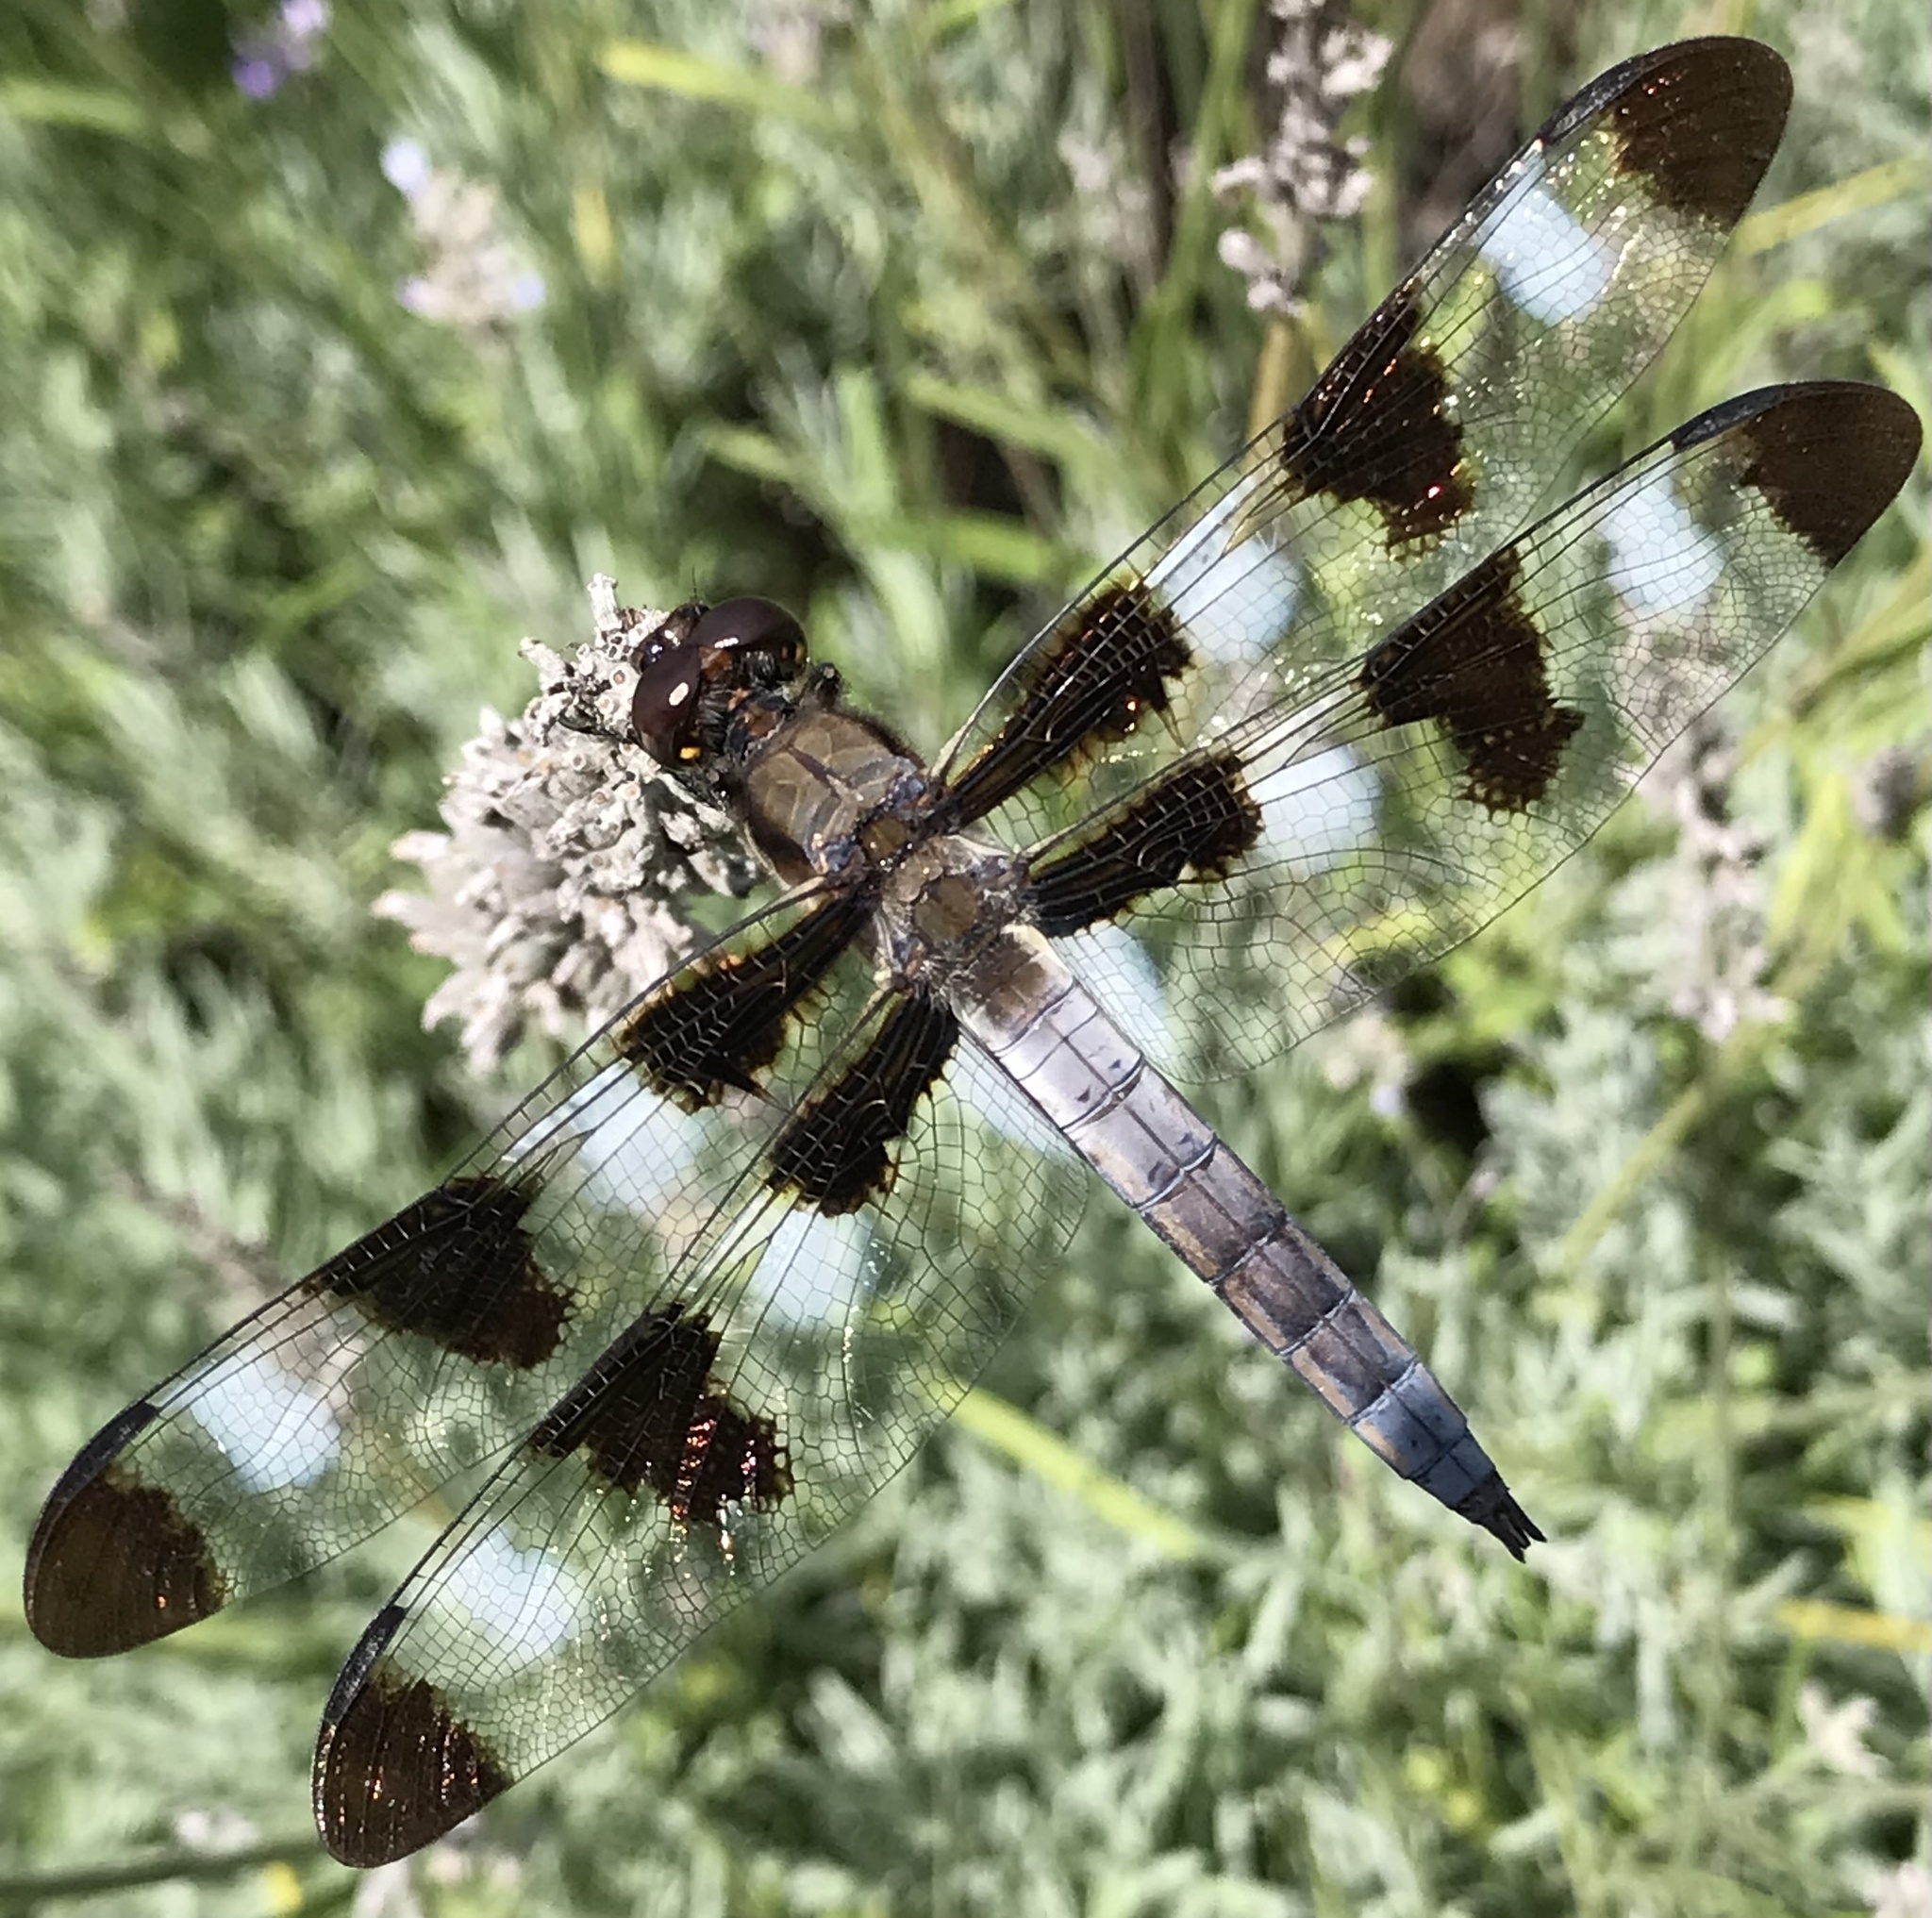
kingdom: Animalia
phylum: Arthropoda
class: Insecta
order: Odonata
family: Libellulidae
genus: Libellula
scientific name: Libellula pulchella
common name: Twelve-spotted skimmer
